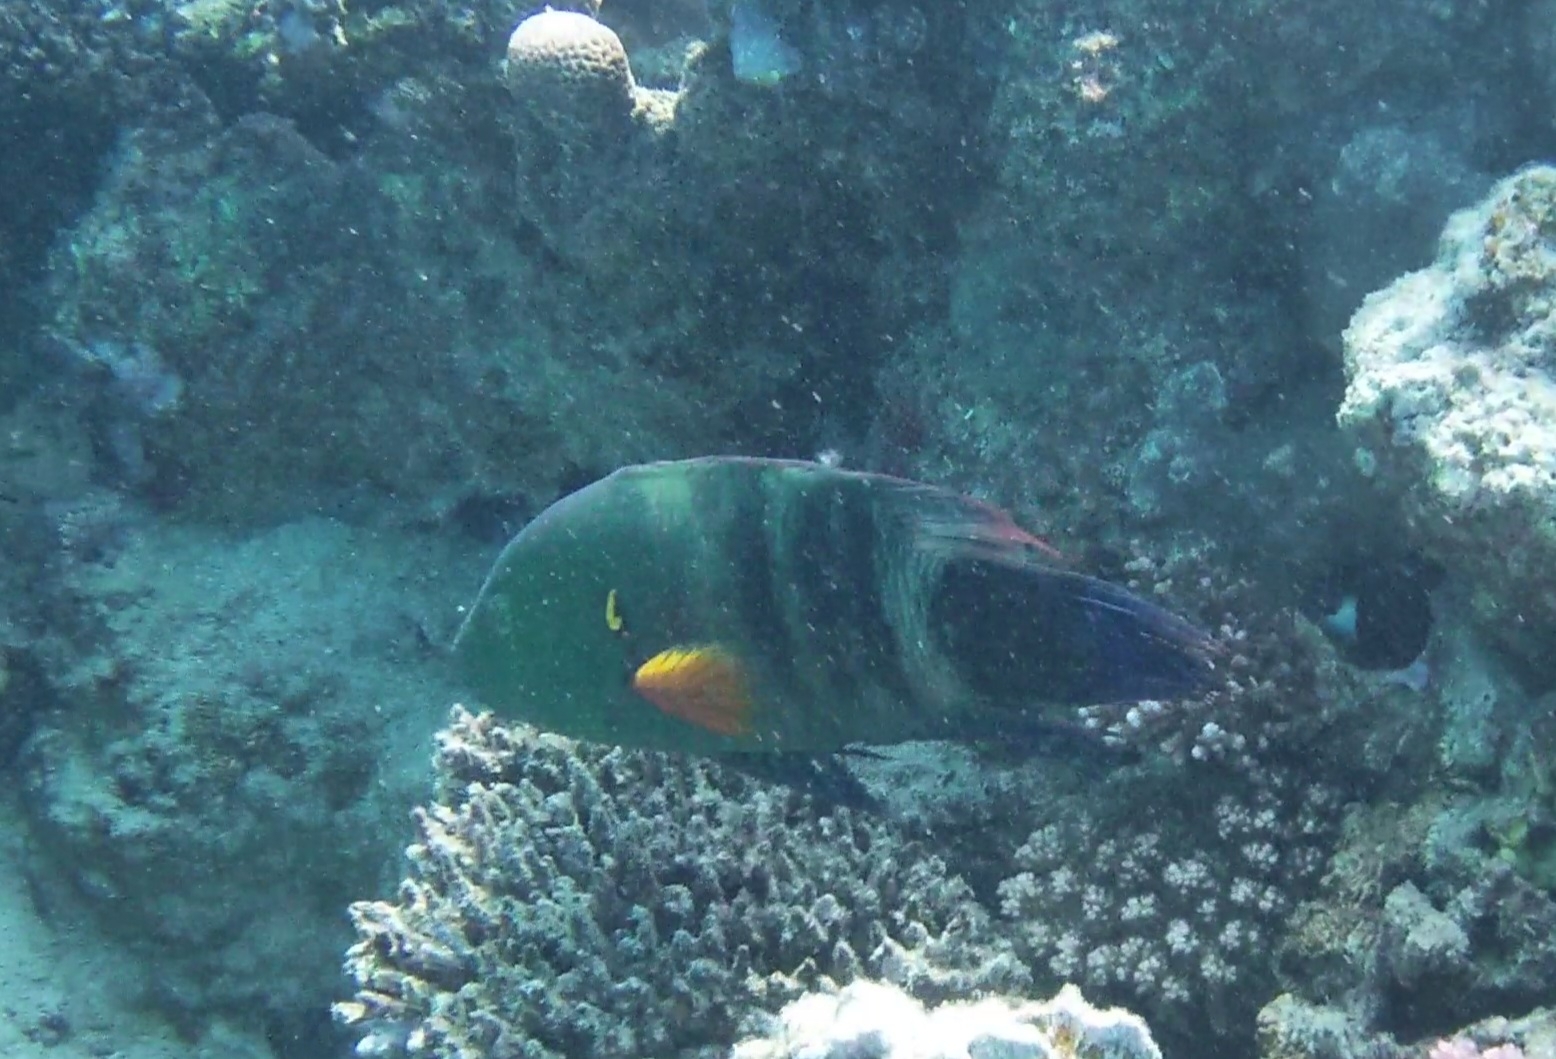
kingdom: Animalia
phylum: Chordata
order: Perciformes
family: Labridae
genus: Cheilinus
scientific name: Cheilinus lunulatus
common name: Broomtail wrasse
